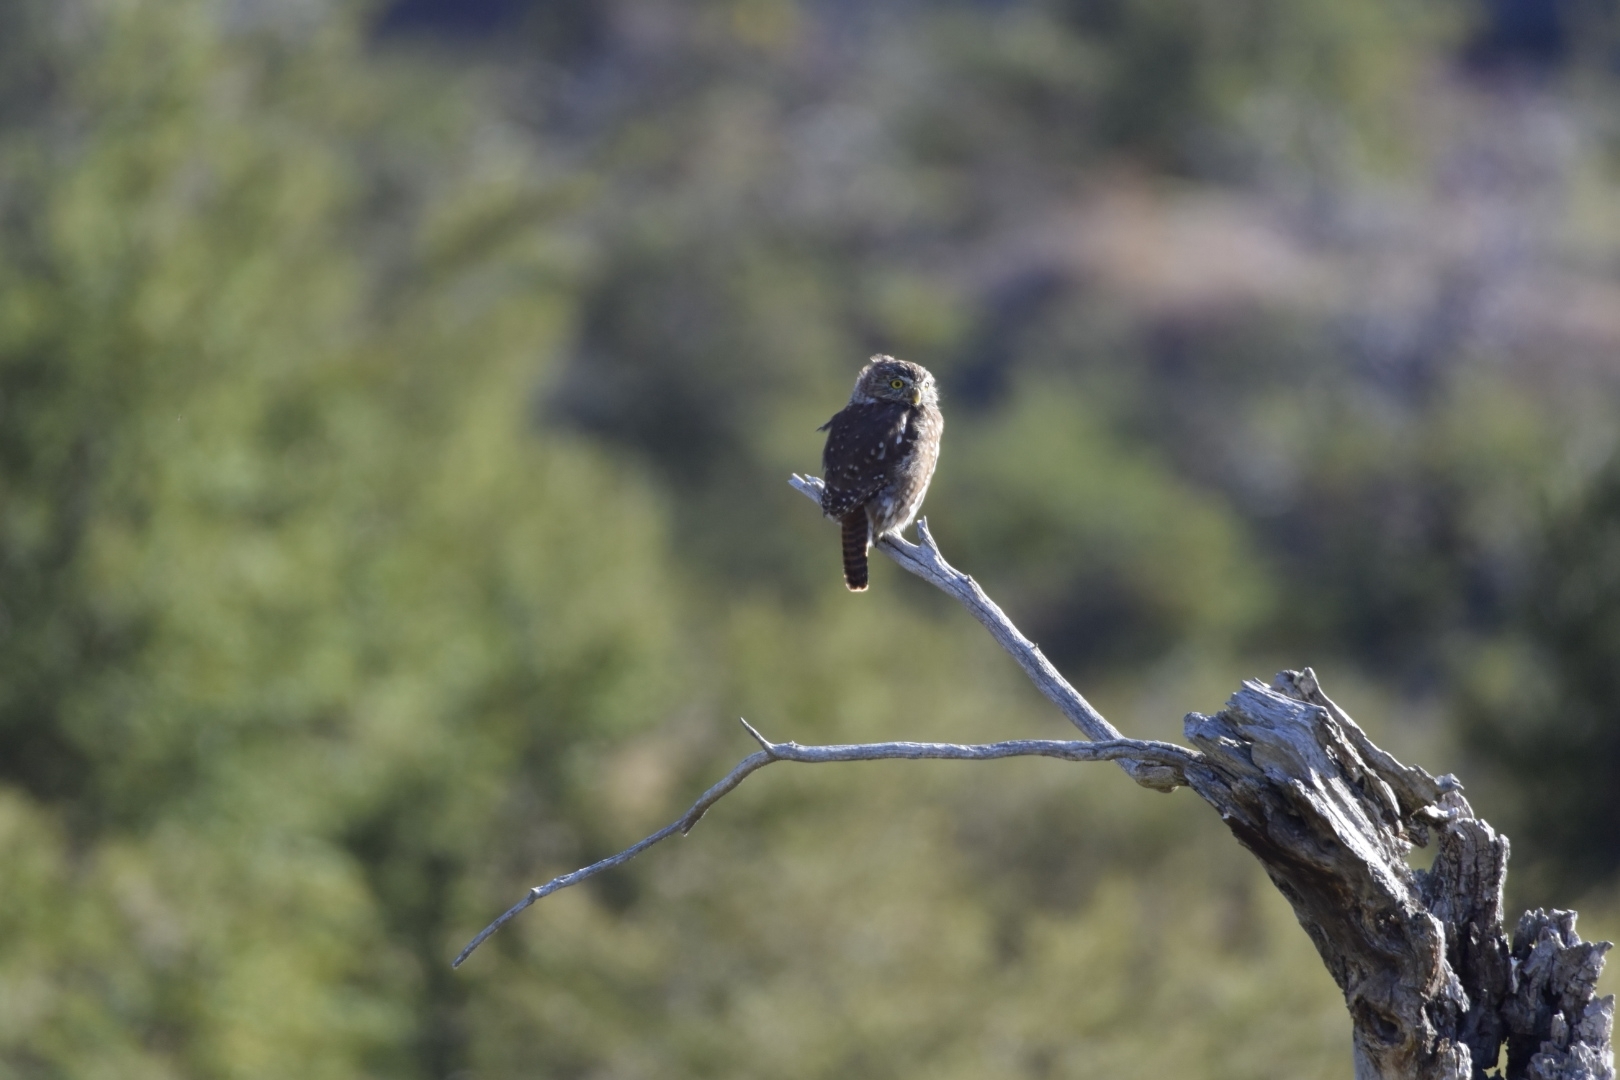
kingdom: Animalia
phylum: Chordata
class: Aves
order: Strigiformes
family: Strigidae
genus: Glaucidium
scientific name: Glaucidium nana
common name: Austral pygmy-owl
